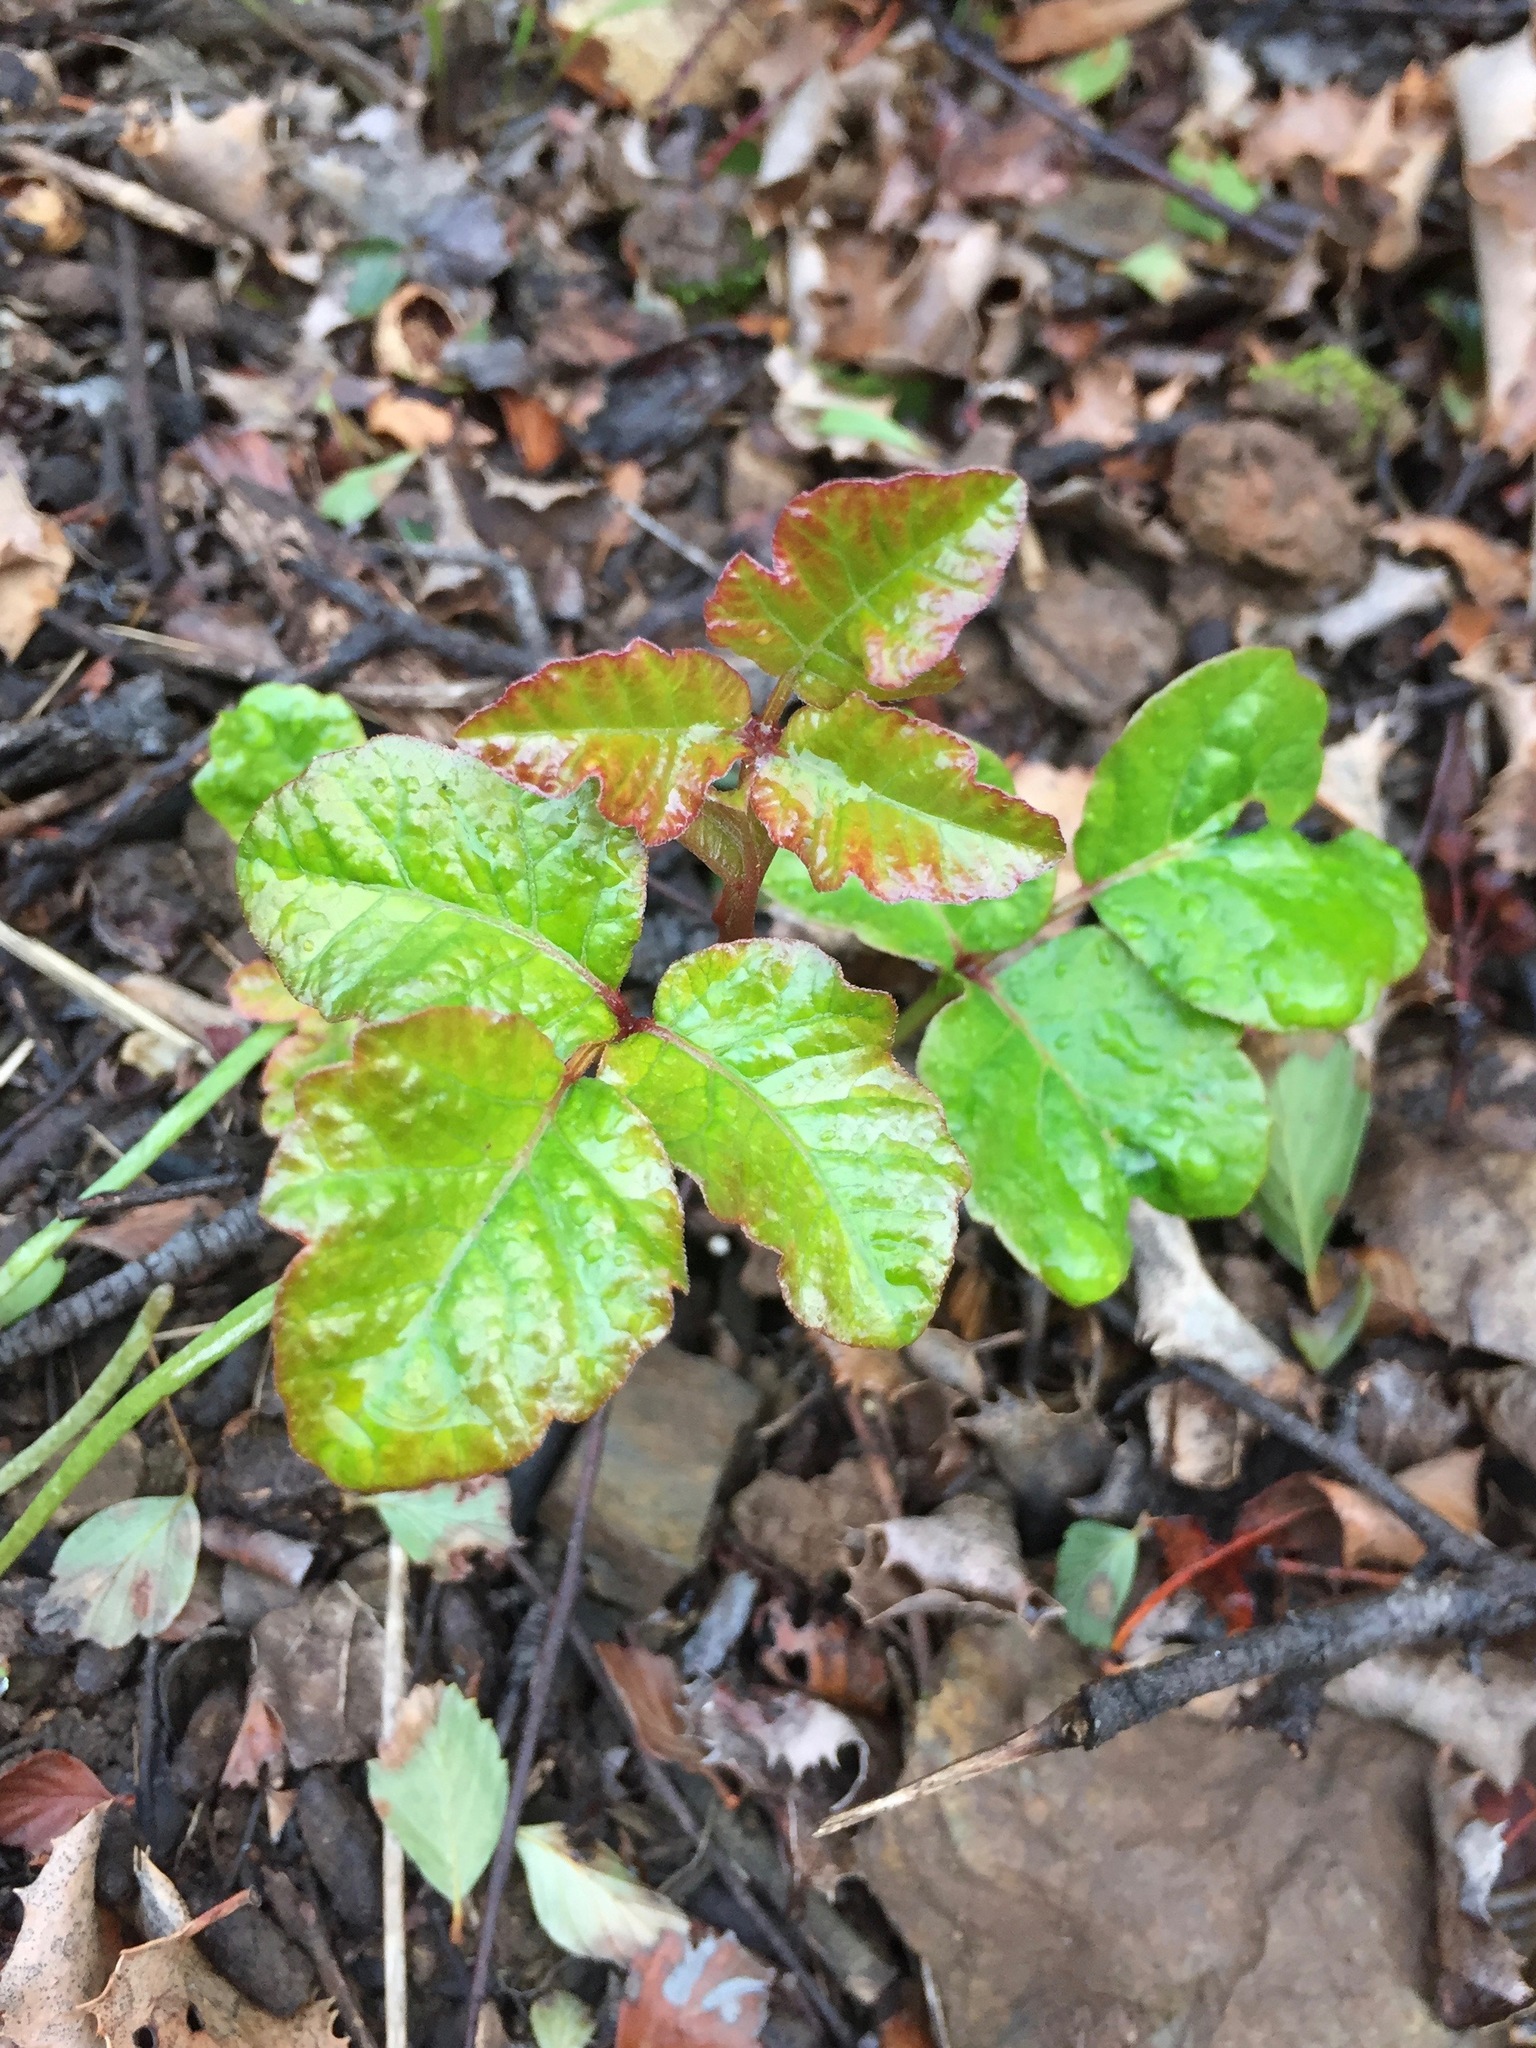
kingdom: Plantae
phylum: Tracheophyta
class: Magnoliopsida
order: Sapindales
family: Anacardiaceae
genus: Toxicodendron
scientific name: Toxicodendron diversilobum
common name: Pacific poison-oak
